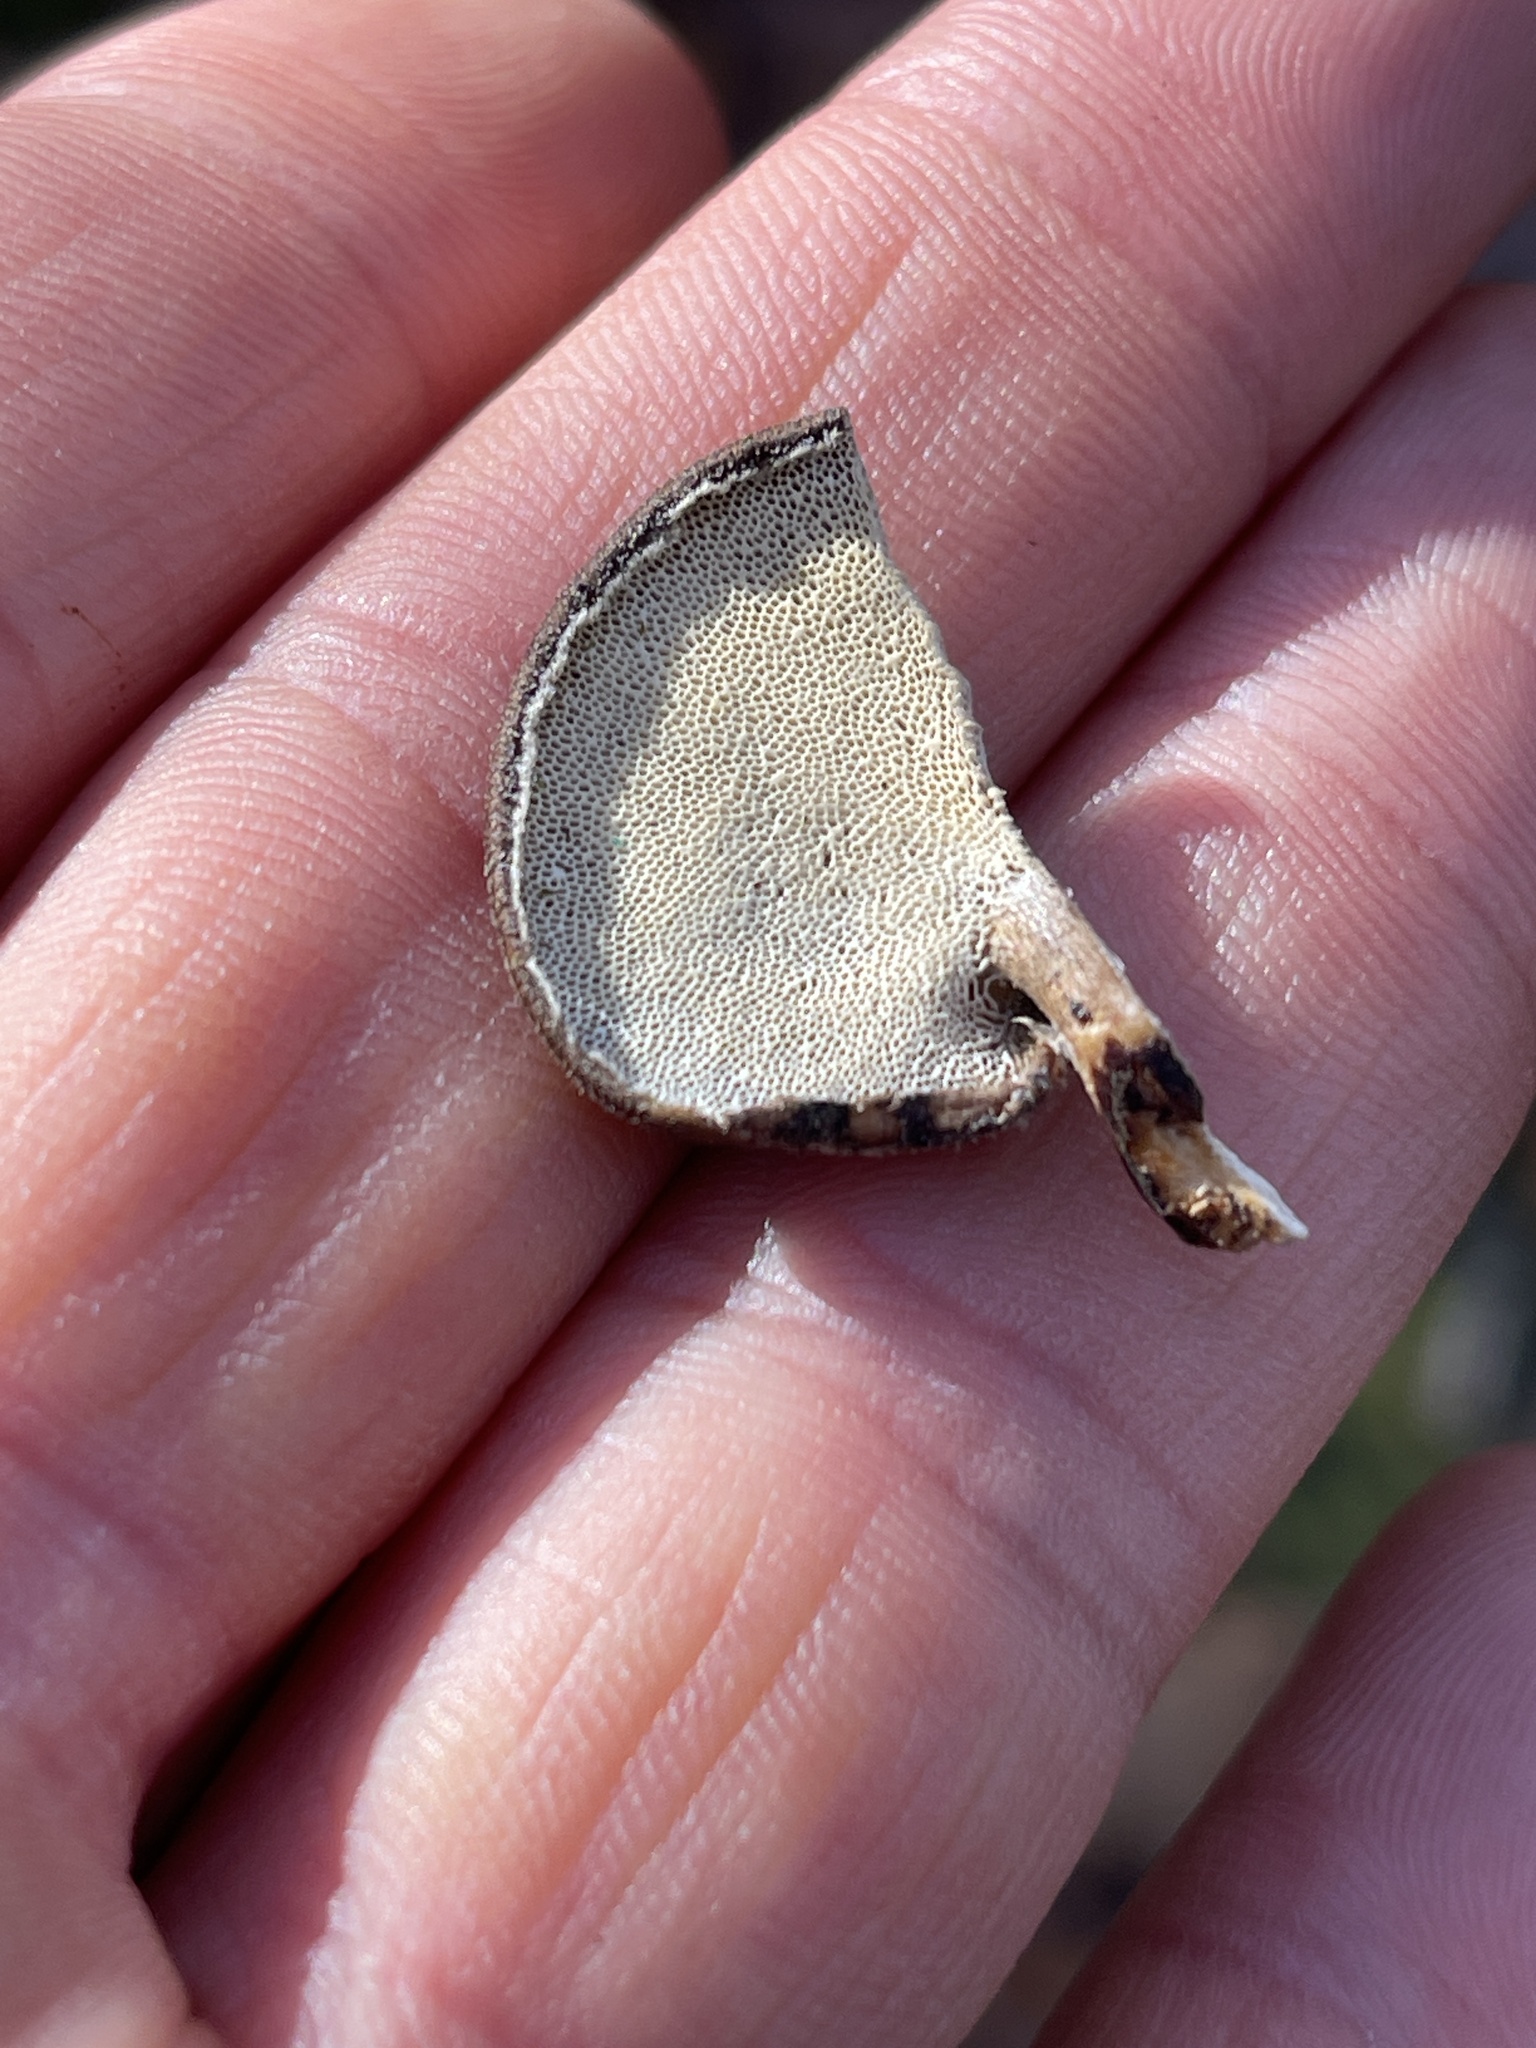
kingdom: Fungi
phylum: Basidiomycota
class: Agaricomycetes
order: Polyporales
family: Polyporaceae
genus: Lentinus
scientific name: Lentinus brumalis
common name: Winter polypore
